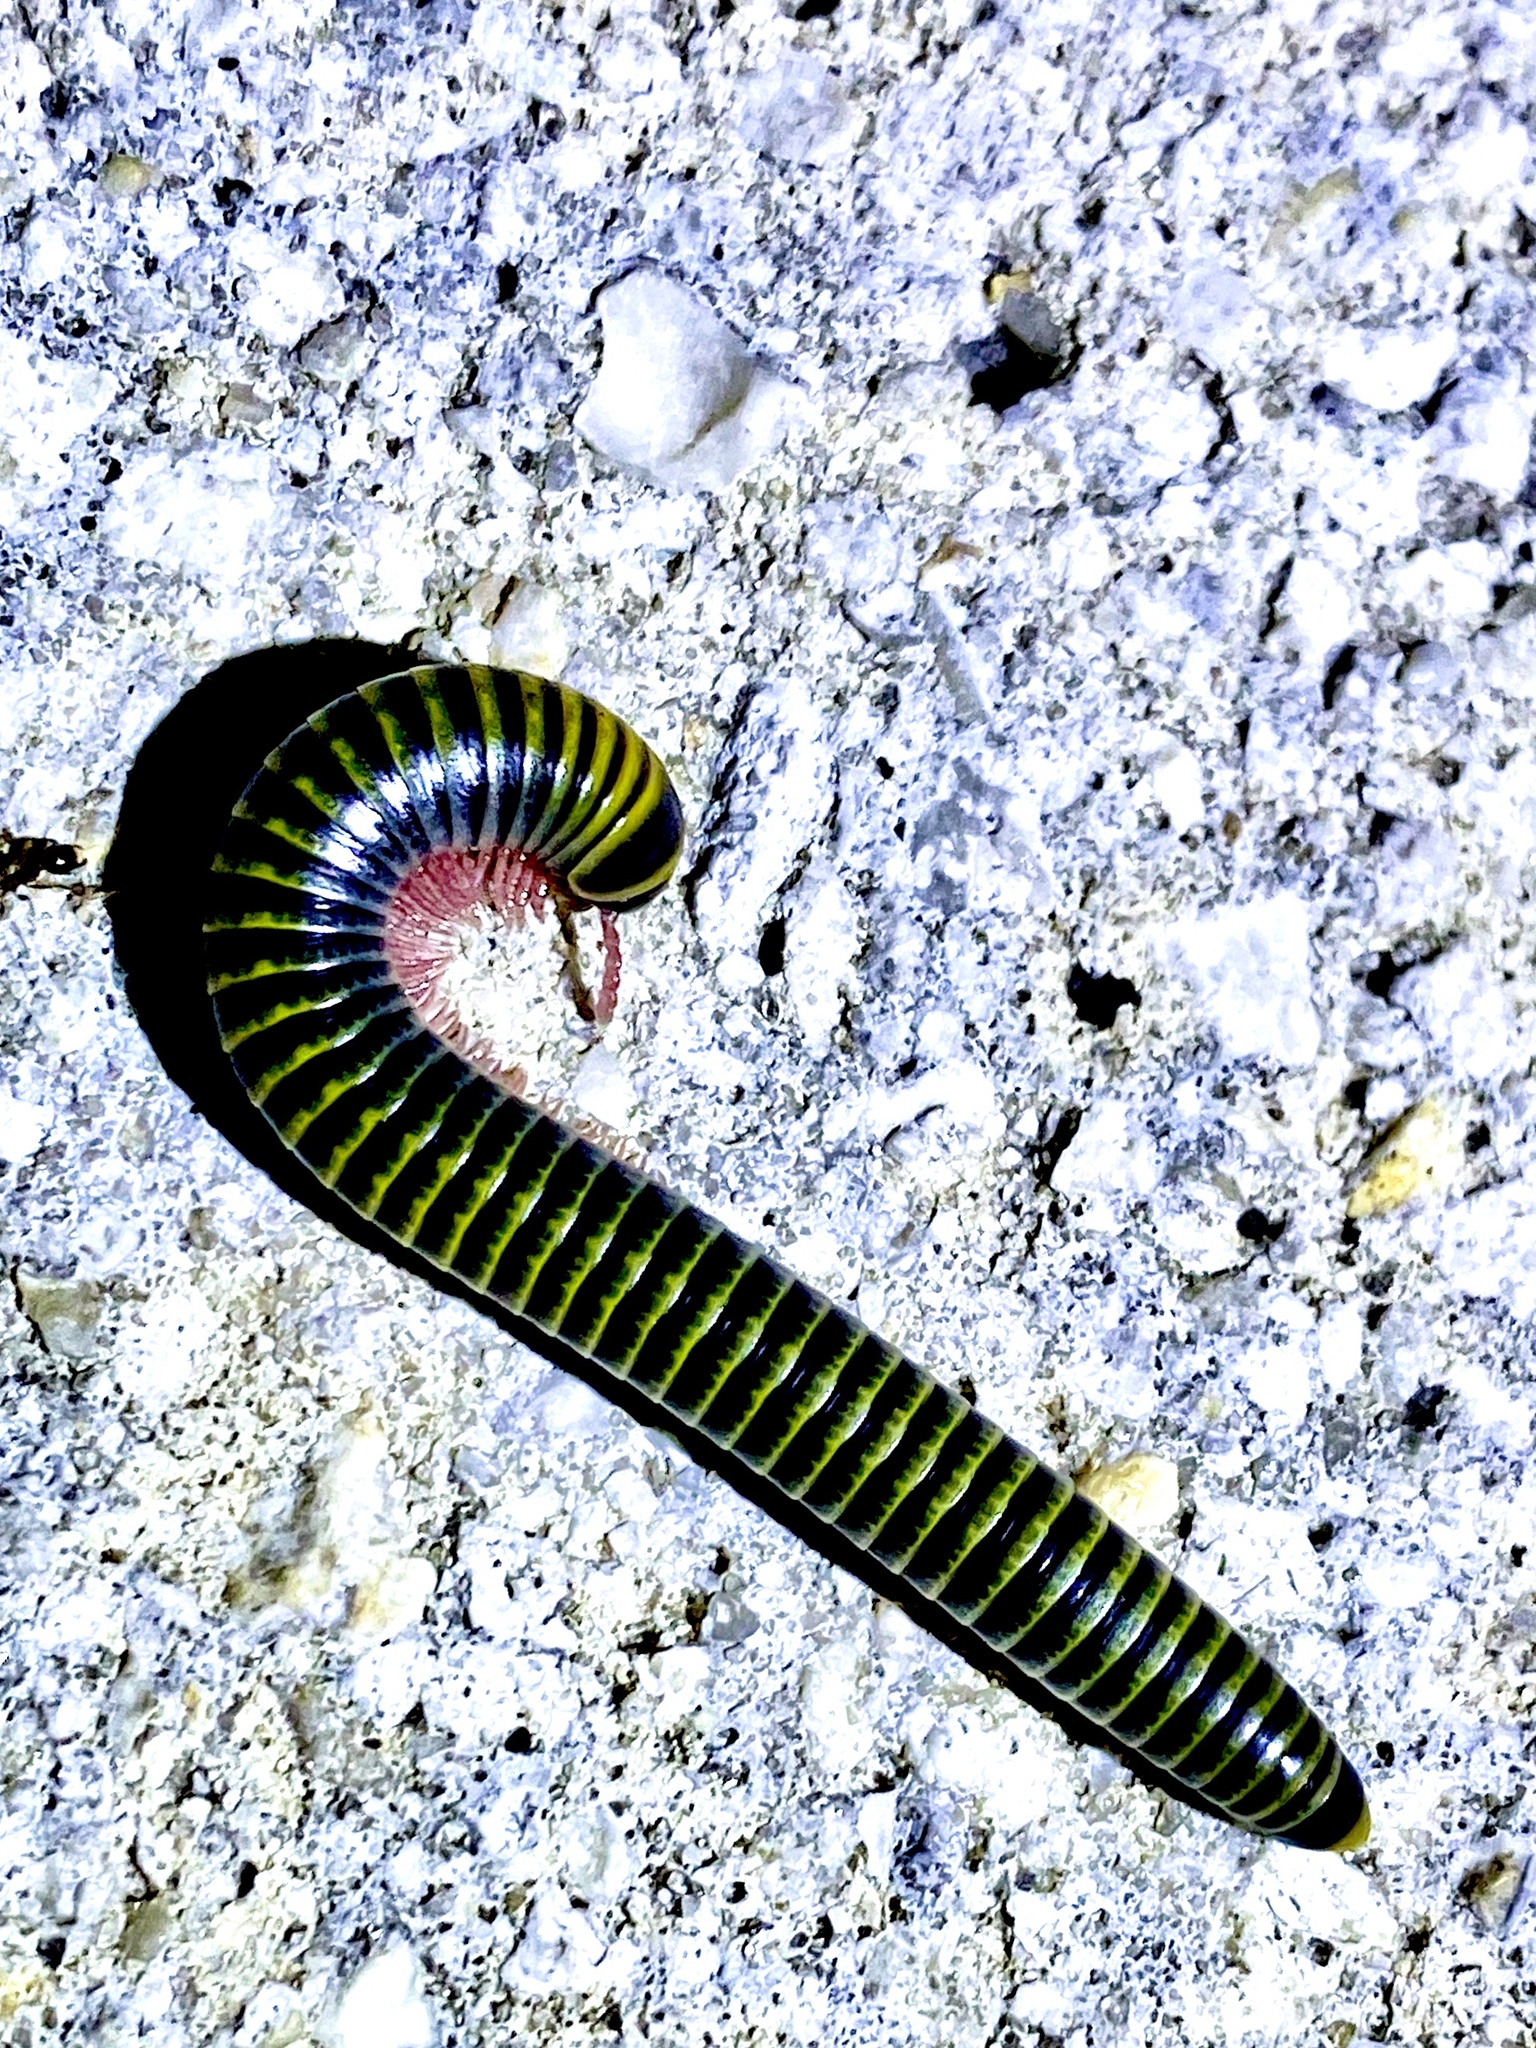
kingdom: Animalia
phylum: Arthropoda
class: Diplopoda
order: Spirobolida
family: Rhinocricidae
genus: Anadenobolus
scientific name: Anadenobolus monilicornis
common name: Caribbean millipede
